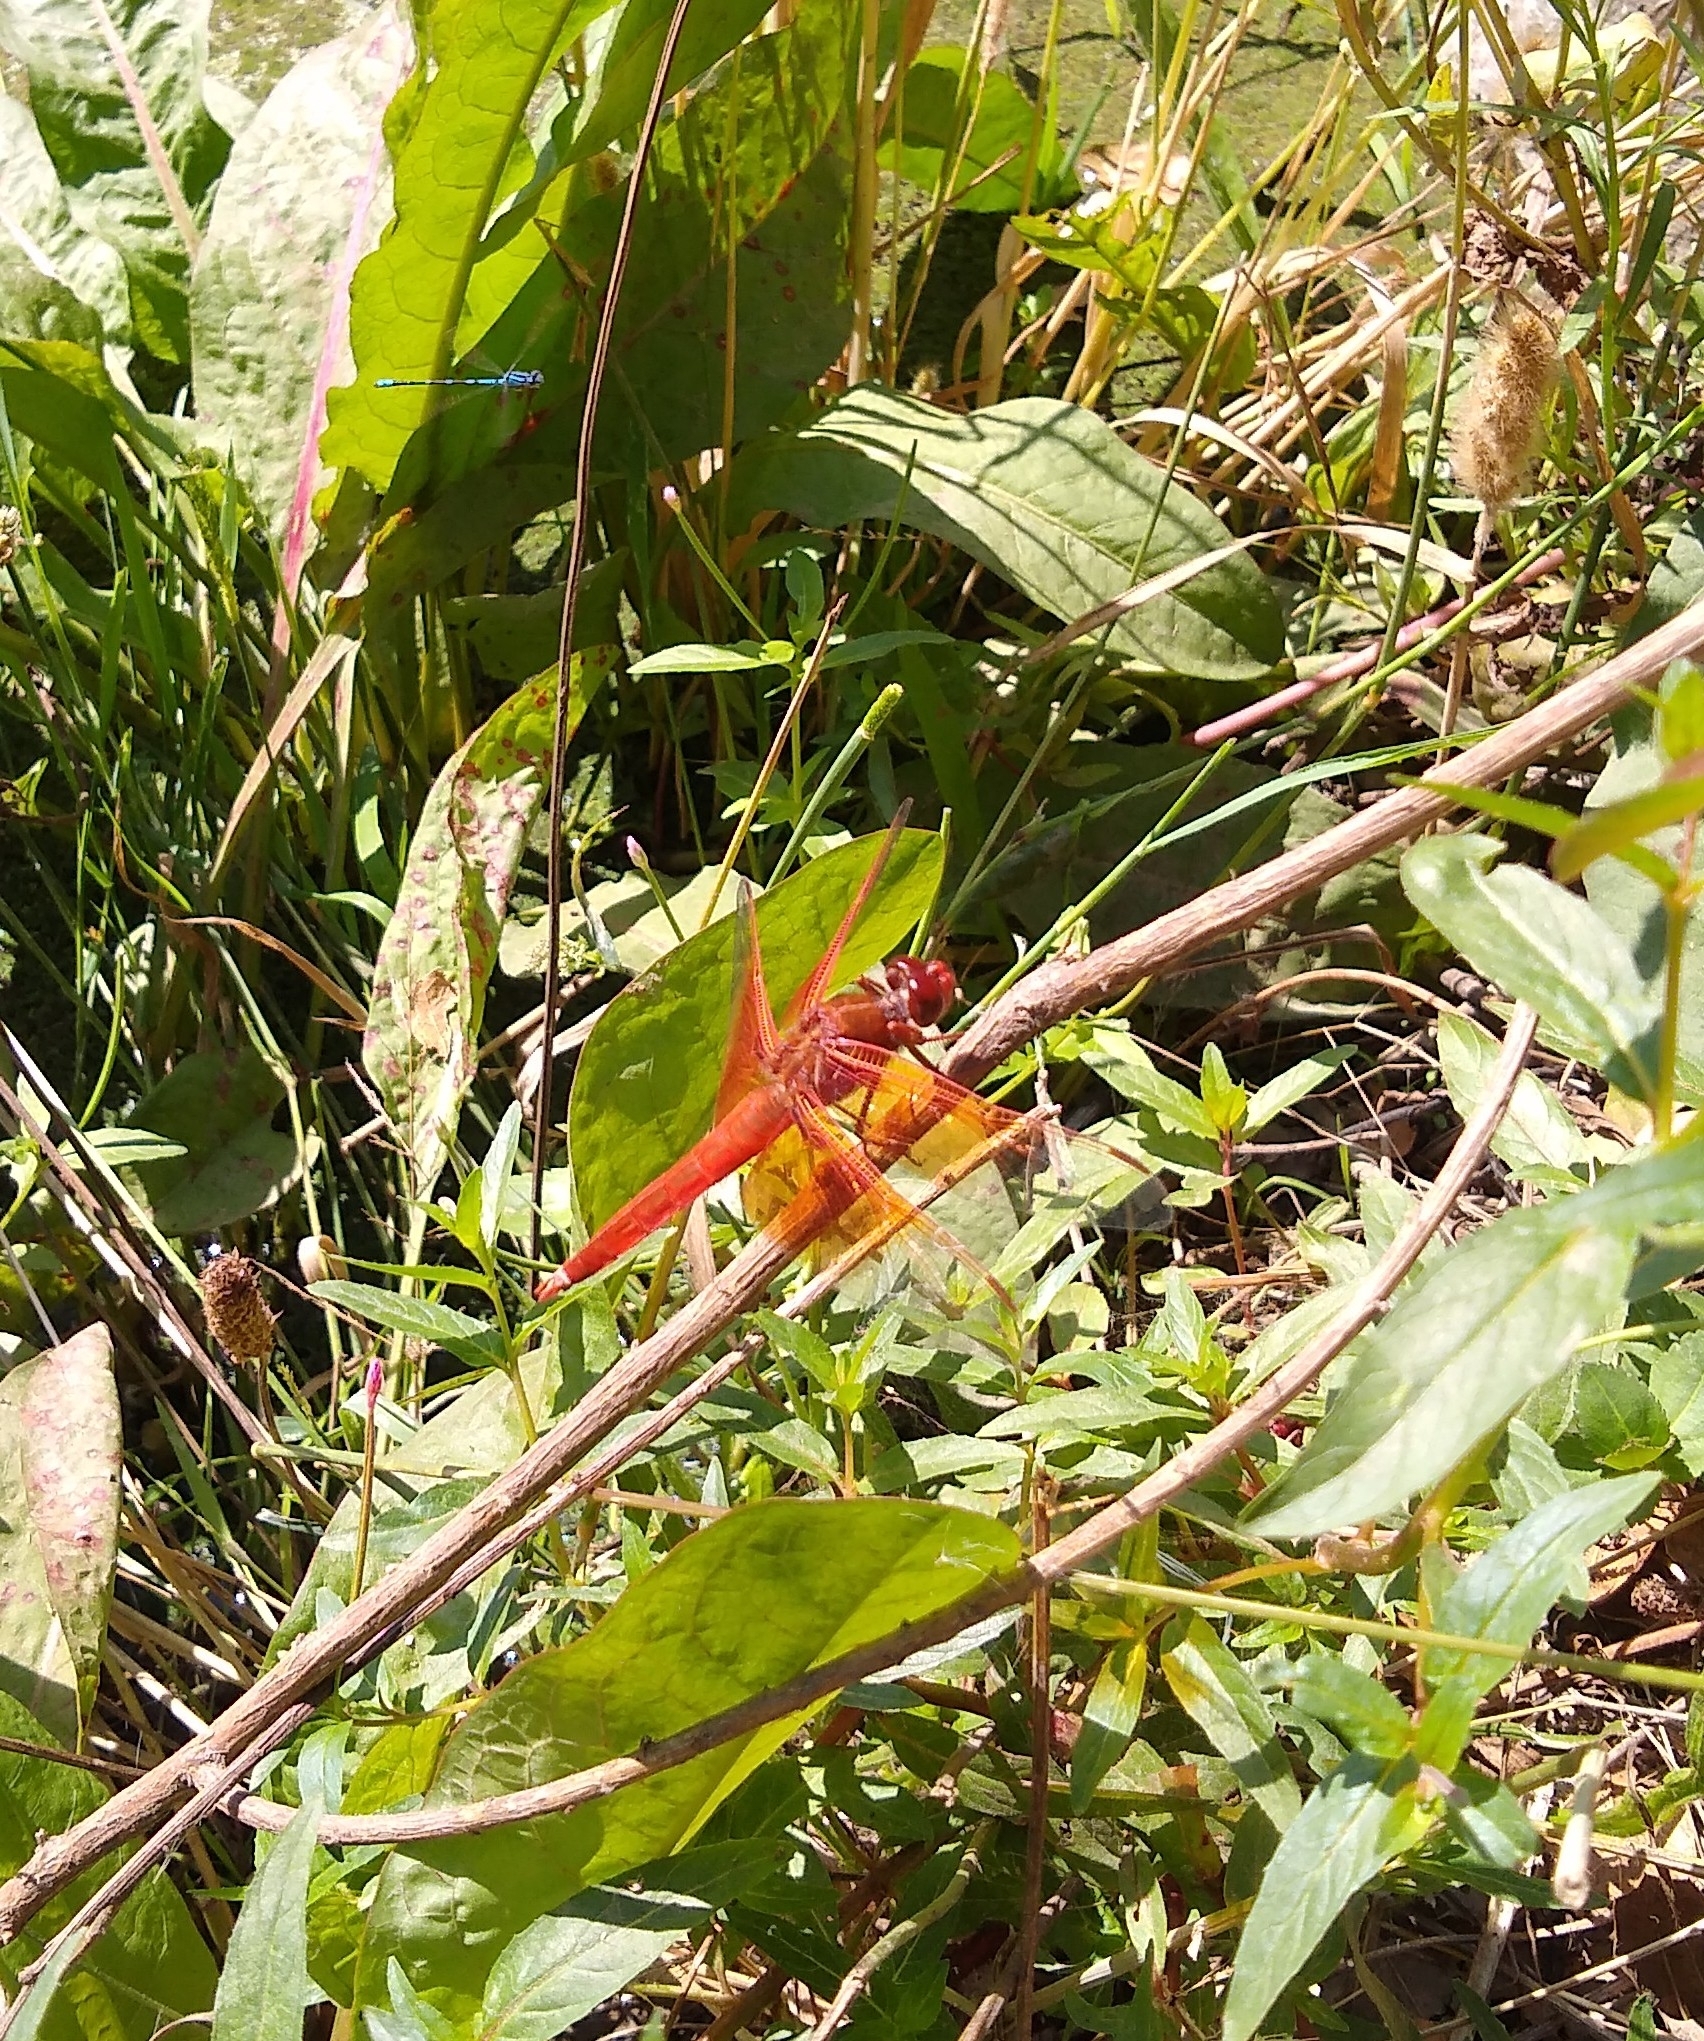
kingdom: Animalia
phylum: Arthropoda
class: Insecta
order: Odonata
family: Libellulidae
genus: Libellula
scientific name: Libellula saturata
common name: Flame skimmer
